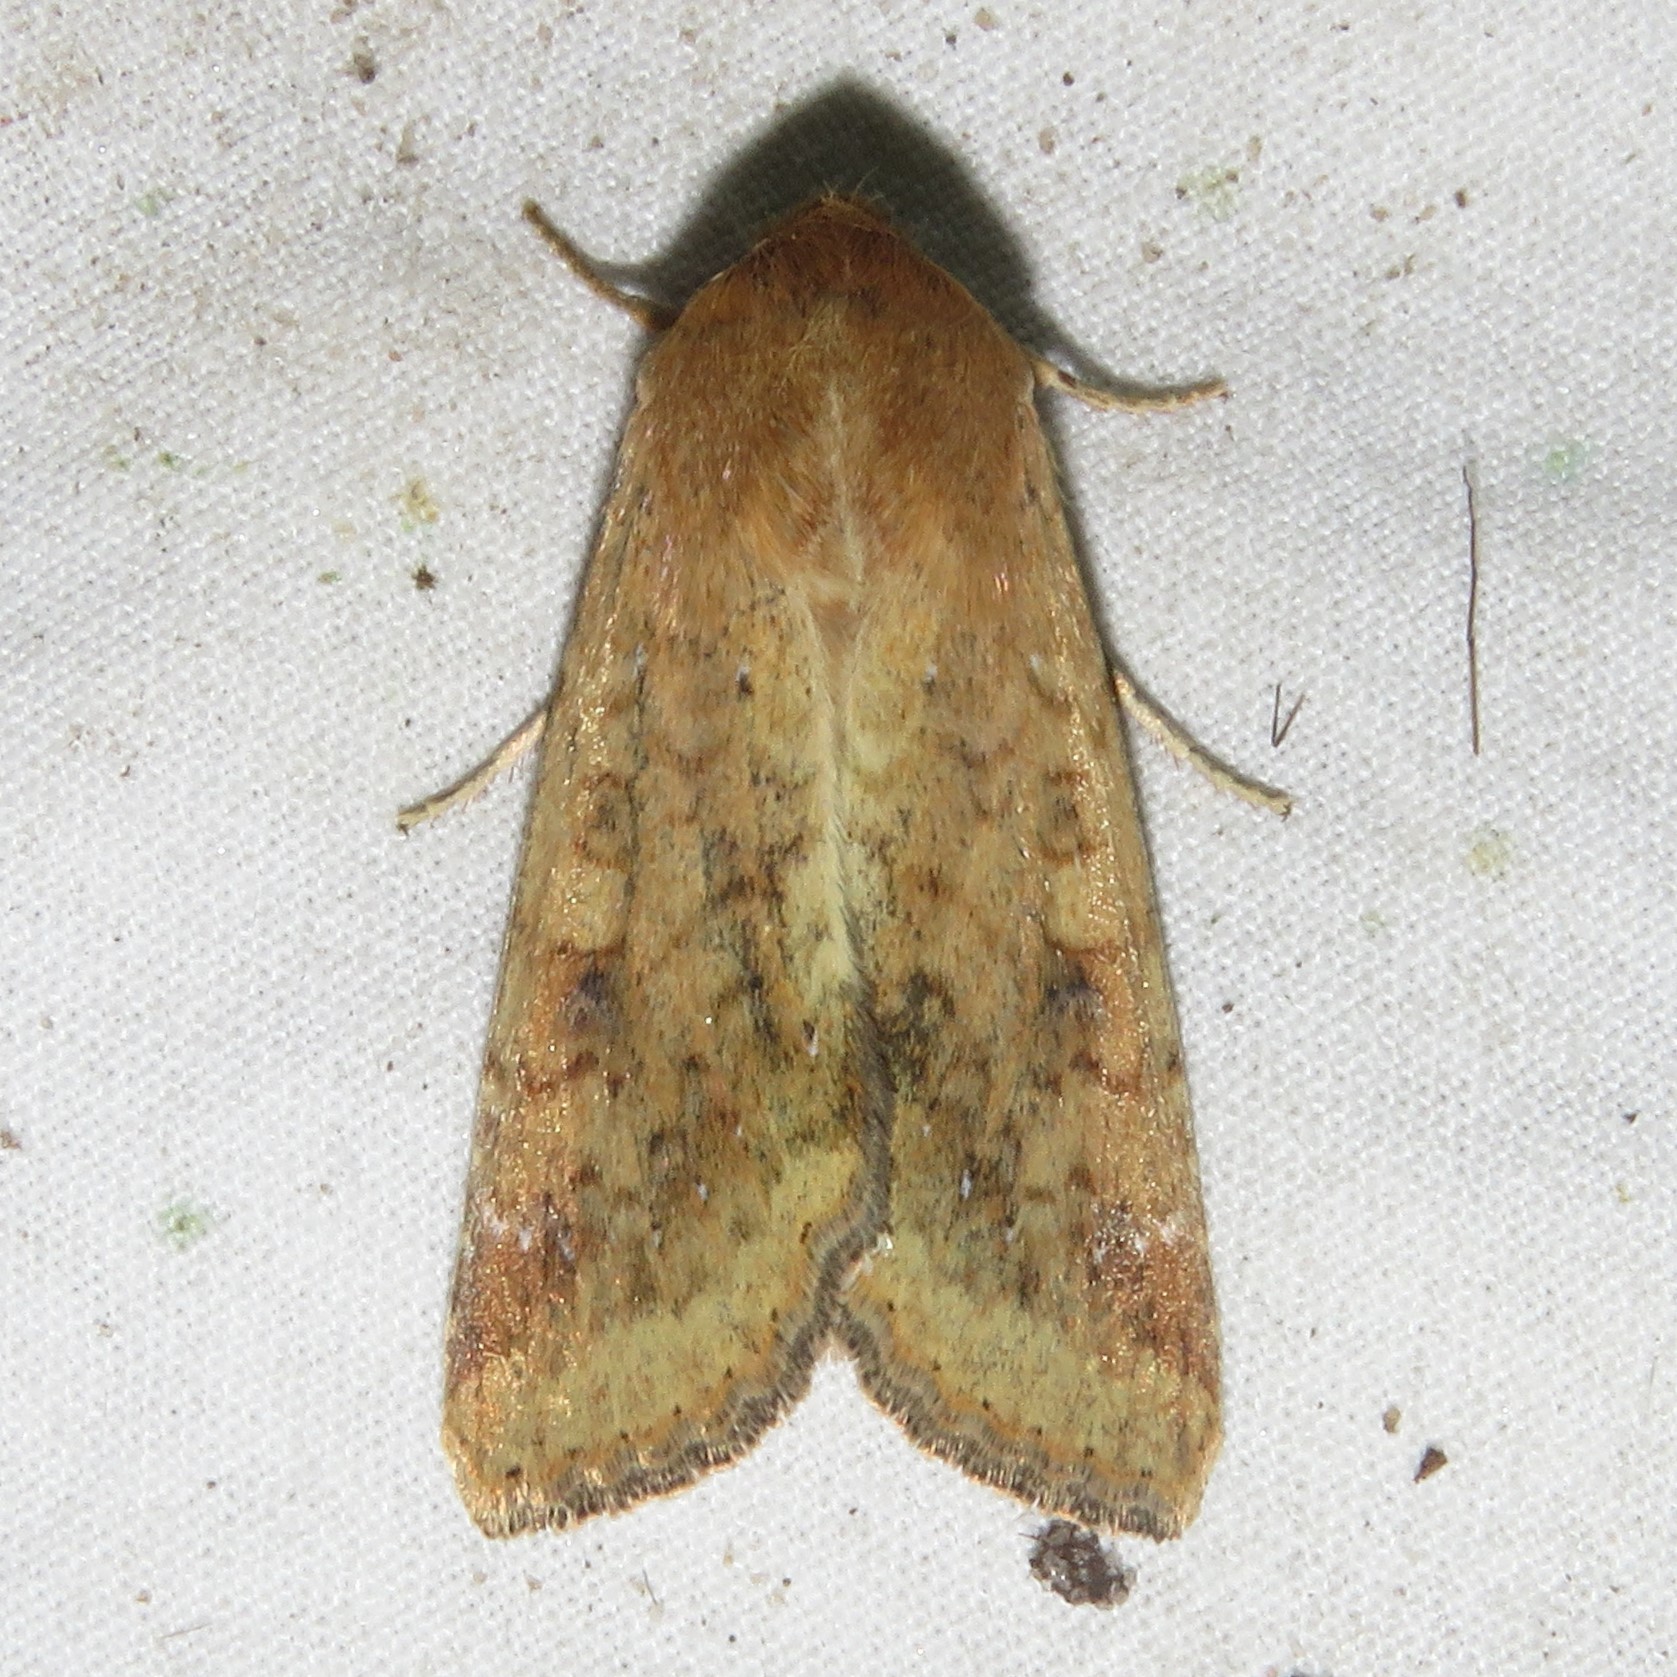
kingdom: Animalia
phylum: Arthropoda
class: Insecta
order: Lepidoptera
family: Noctuidae
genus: Helicoverpa
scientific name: Helicoverpa zea
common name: Bollworm
